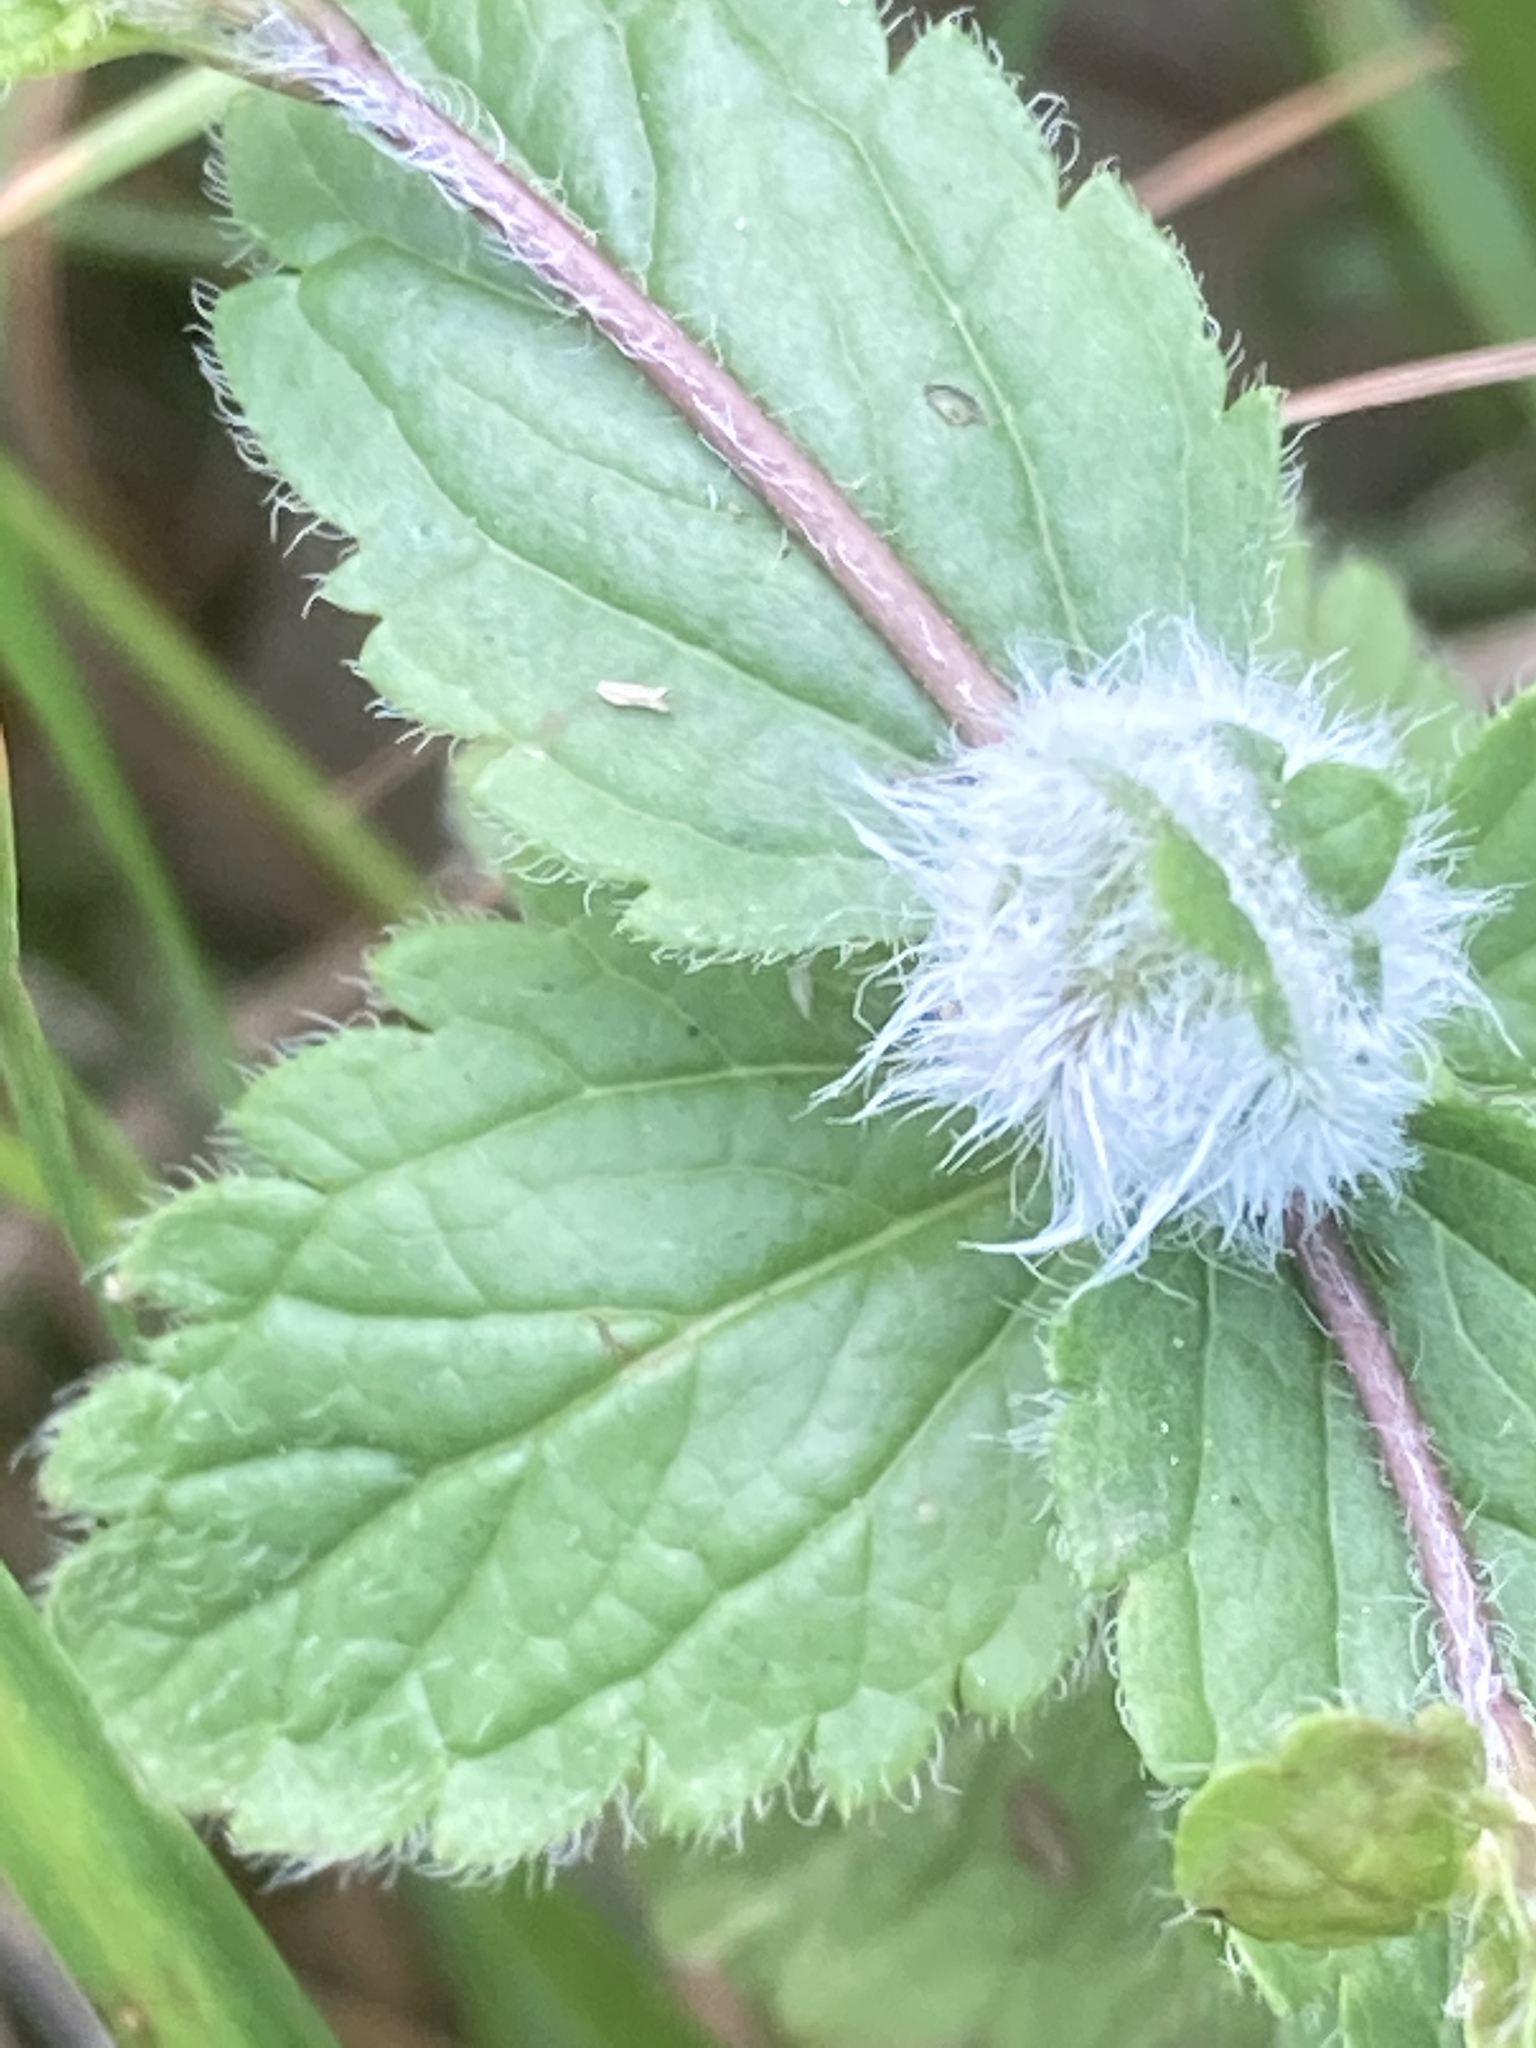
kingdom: Plantae
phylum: Tracheophyta
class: Magnoliopsida
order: Lamiales
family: Plantaginaceae
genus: Veronica
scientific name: Veronica chamaedrys
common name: Germander speedwell
